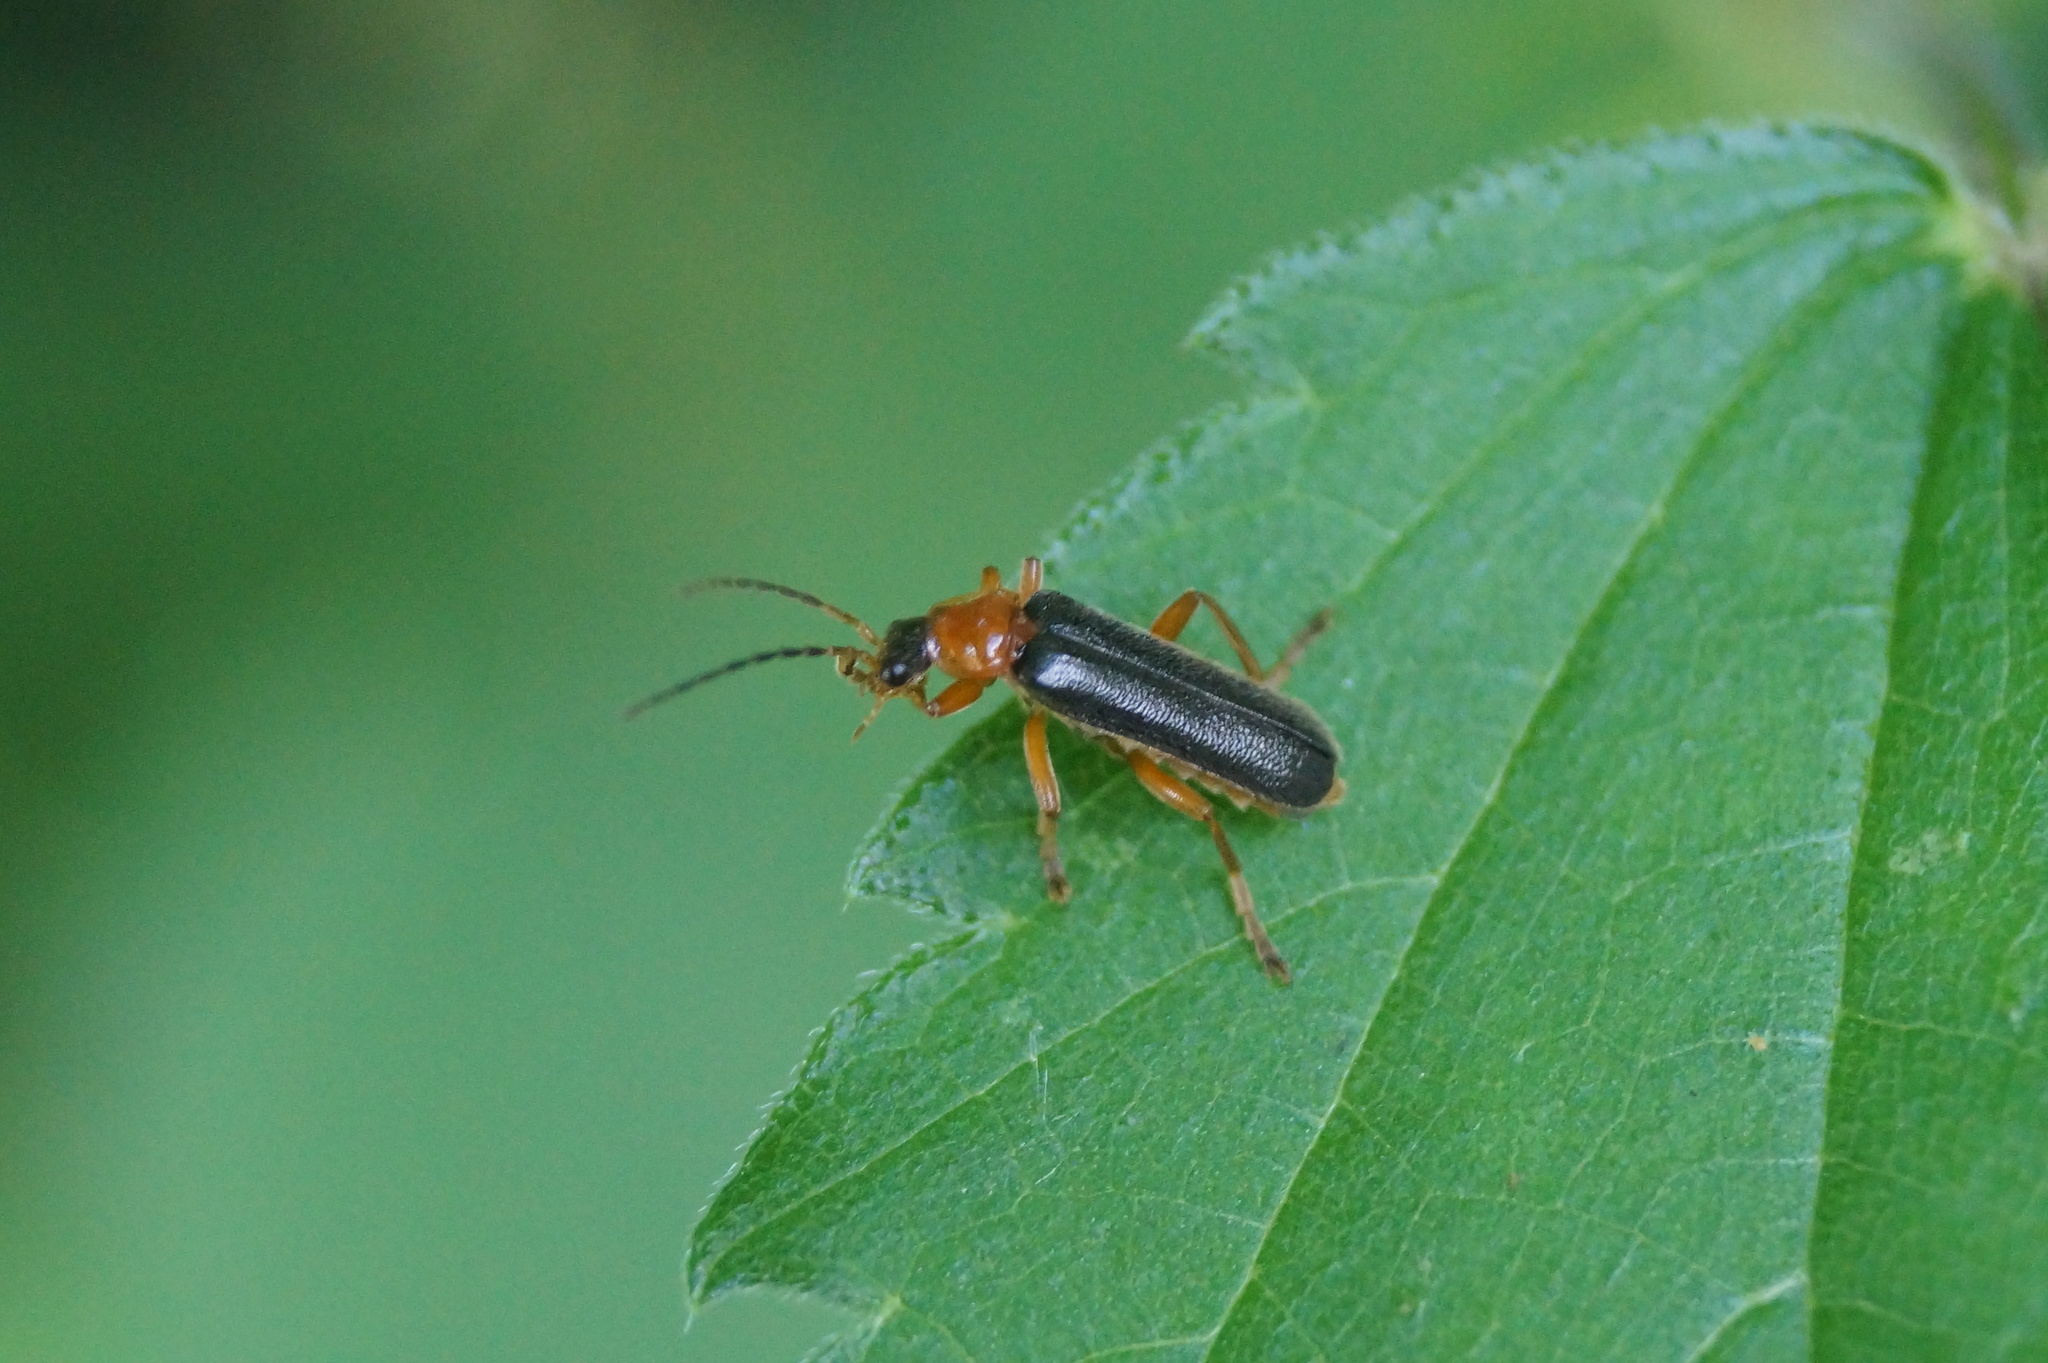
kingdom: Animalia
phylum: Arthropoda
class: Insecta
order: Coleoptera
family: Cantharidae
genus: Cantharis
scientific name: Cantharis nigra
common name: Cantharid beetle
